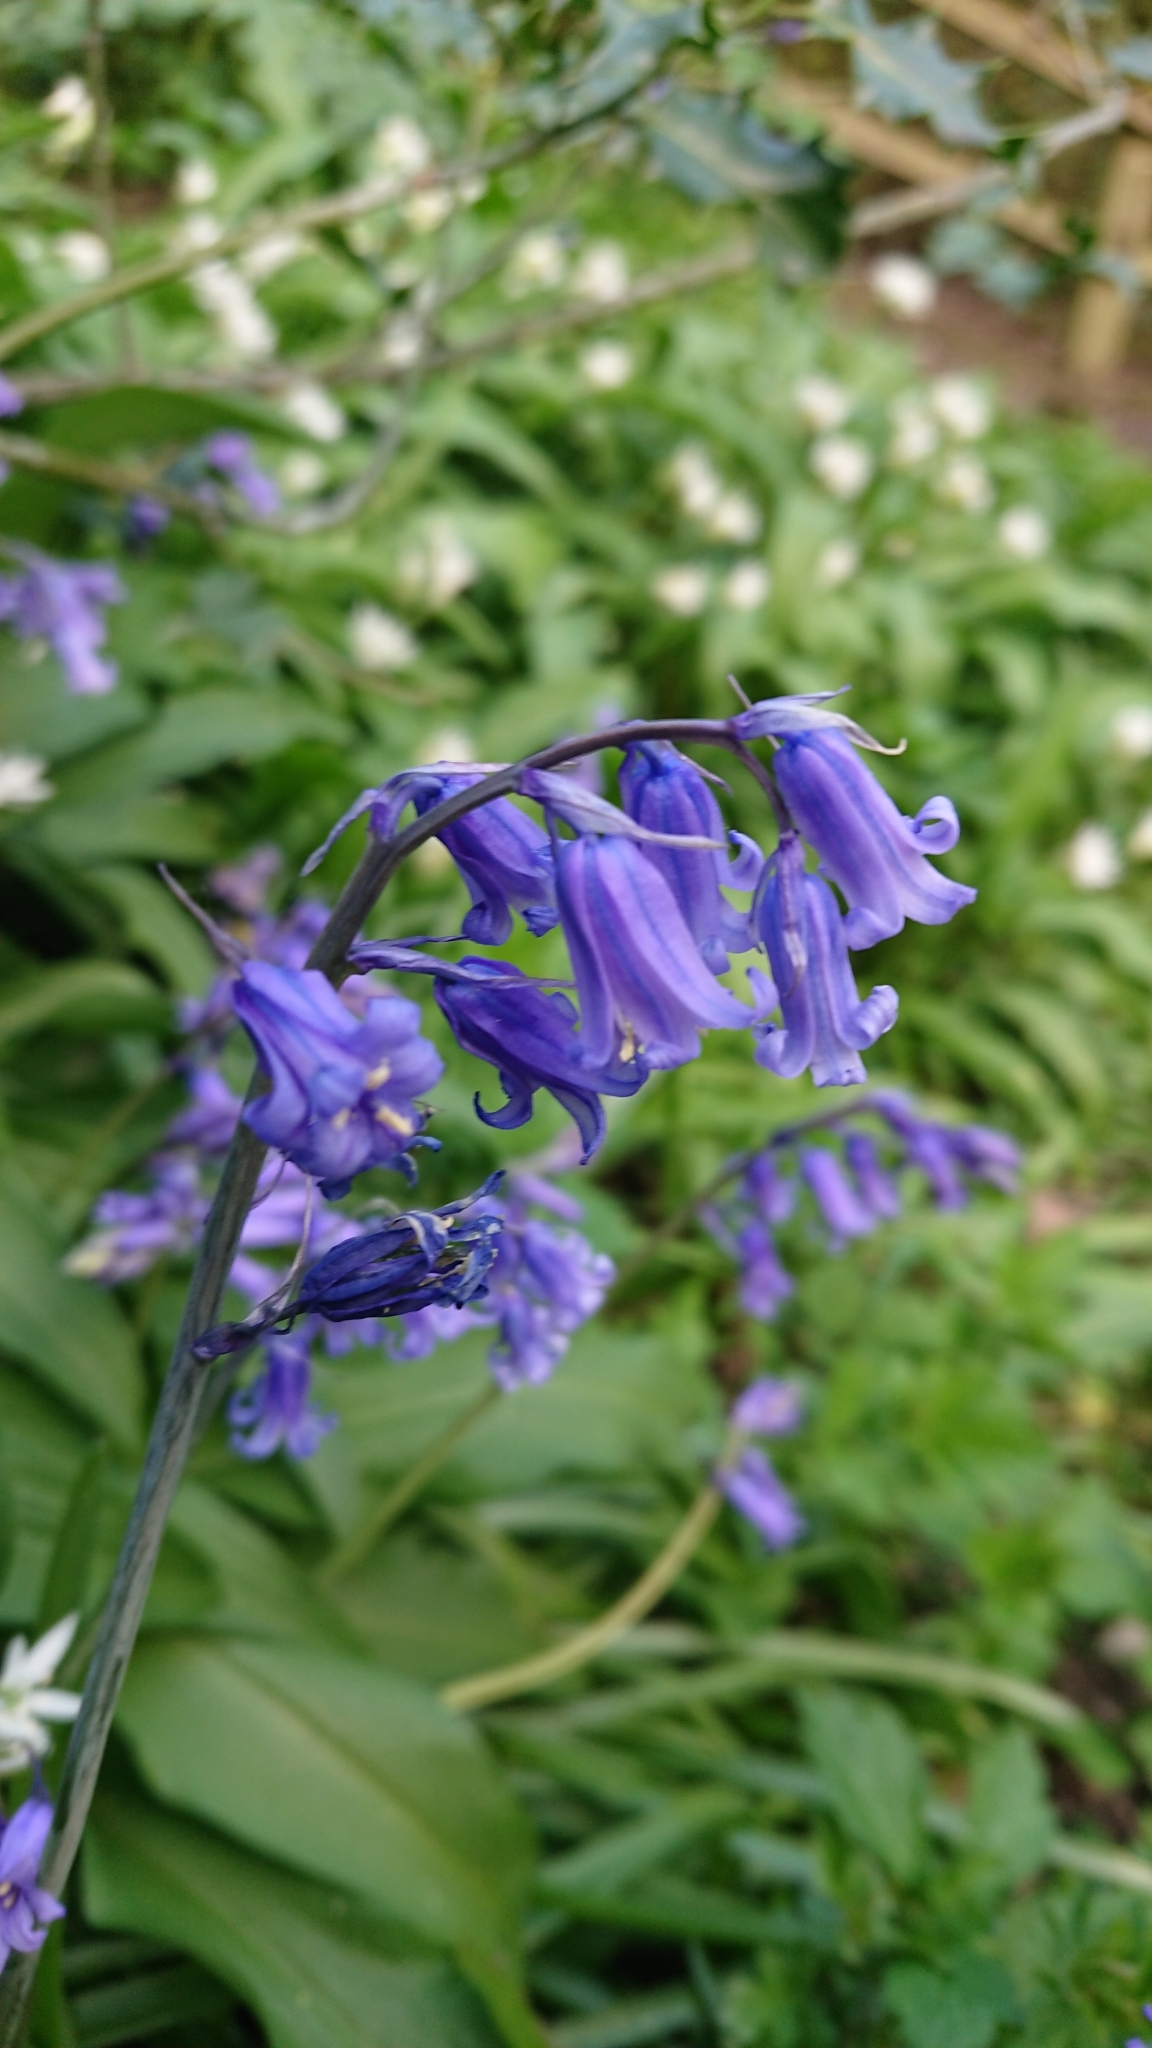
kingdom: Plantae
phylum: Tracheophyta
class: Liliopsida
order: Asparagales
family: Asparagaceae
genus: Hyacinthoides
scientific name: Hyacinthoides non-scripta
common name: Bluebell
